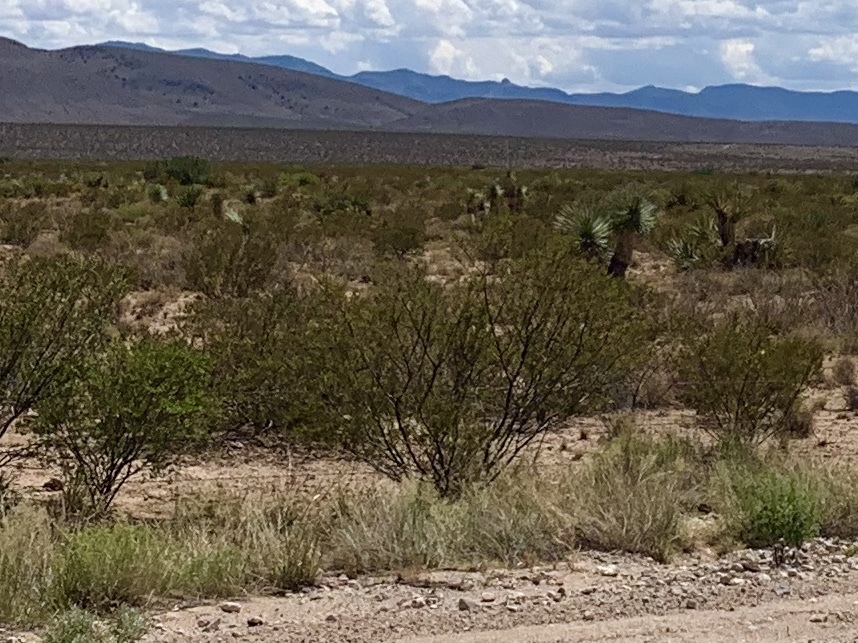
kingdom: Plantae
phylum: Tracheophyta
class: Magnoliopsida
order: Zygophyllales
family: Zygophyllaceae
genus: Larrea
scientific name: Larrea tridentata
